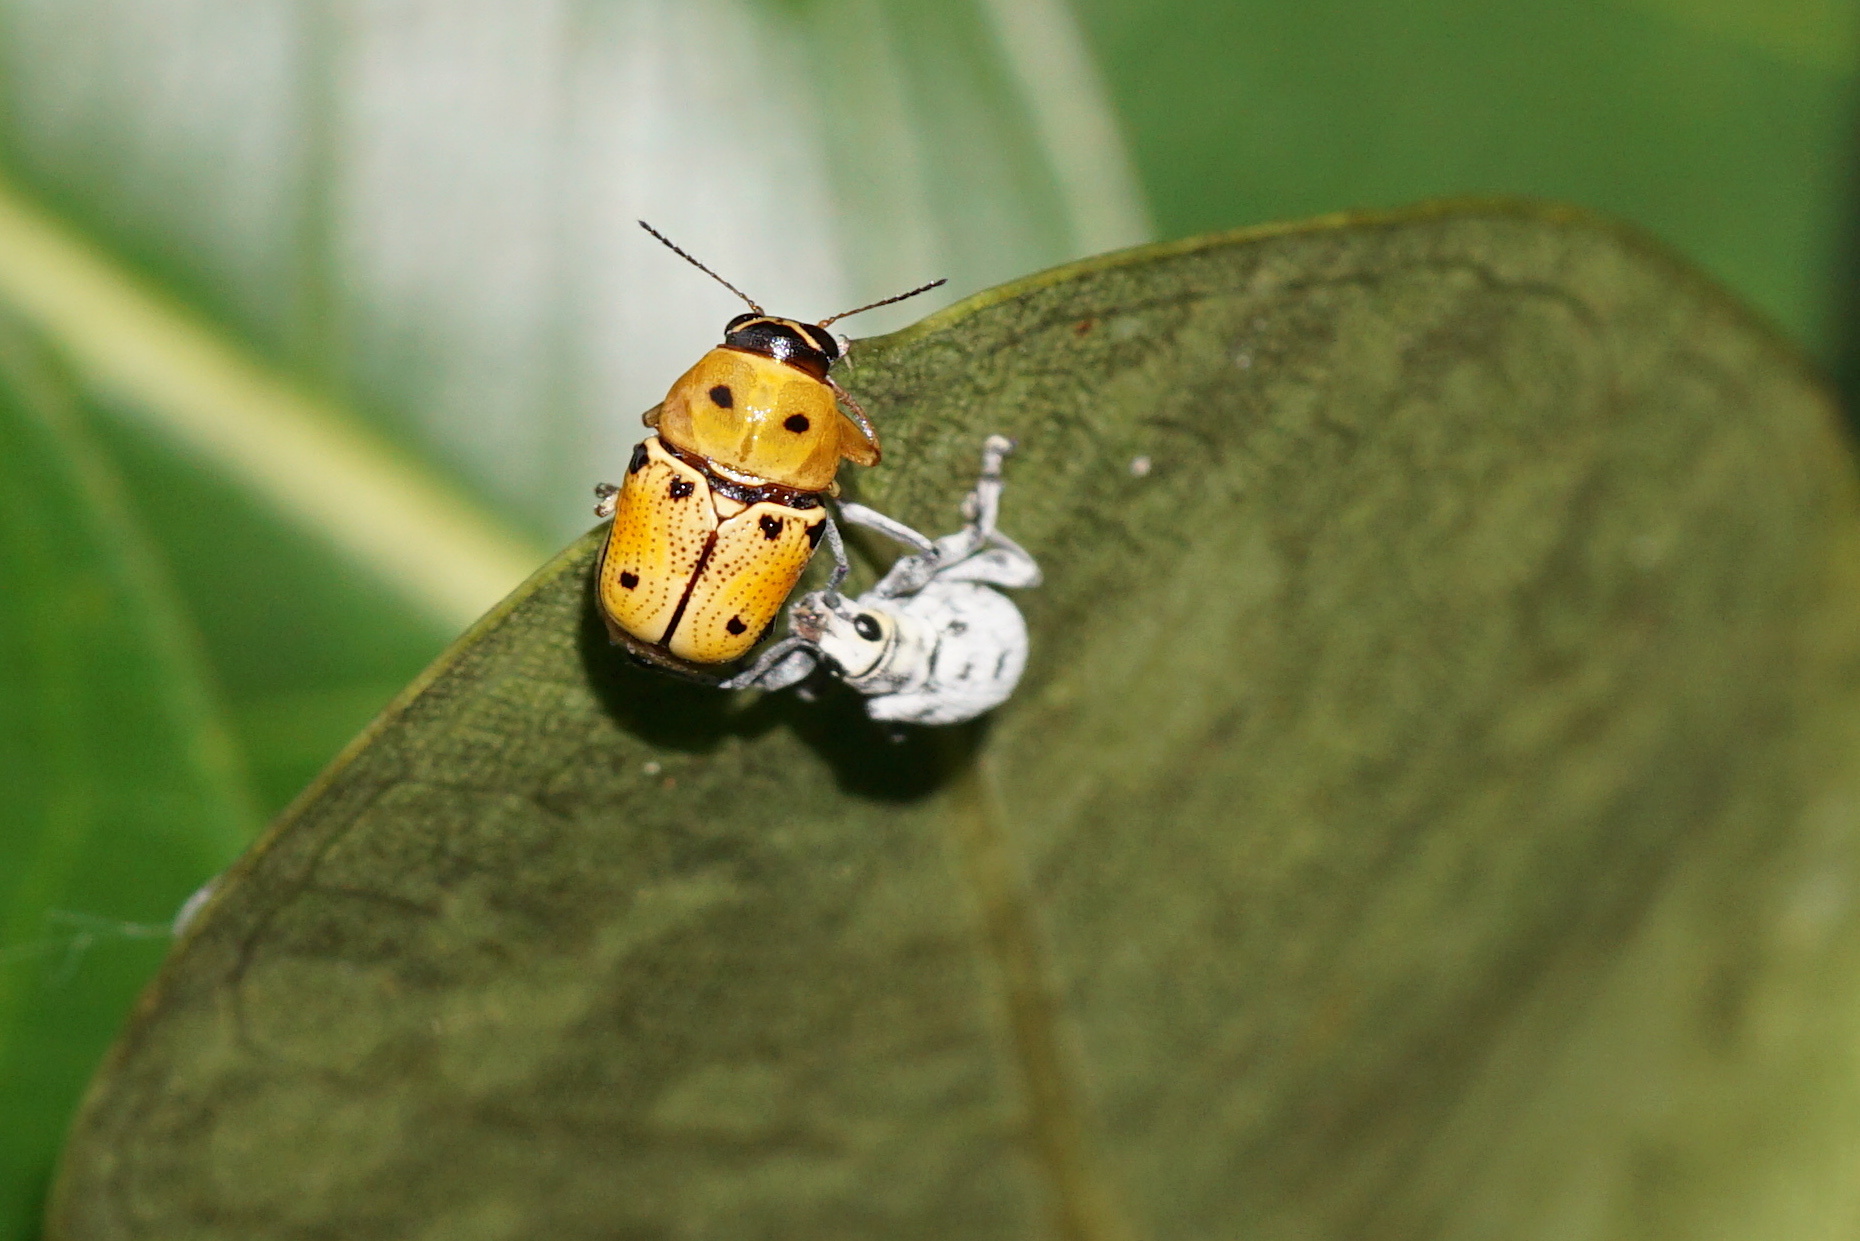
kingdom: Animalia
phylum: Arthropoda
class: Insecta
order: Coleoptera
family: Chrysomelidae
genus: Griburius
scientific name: Griburius larvatus
